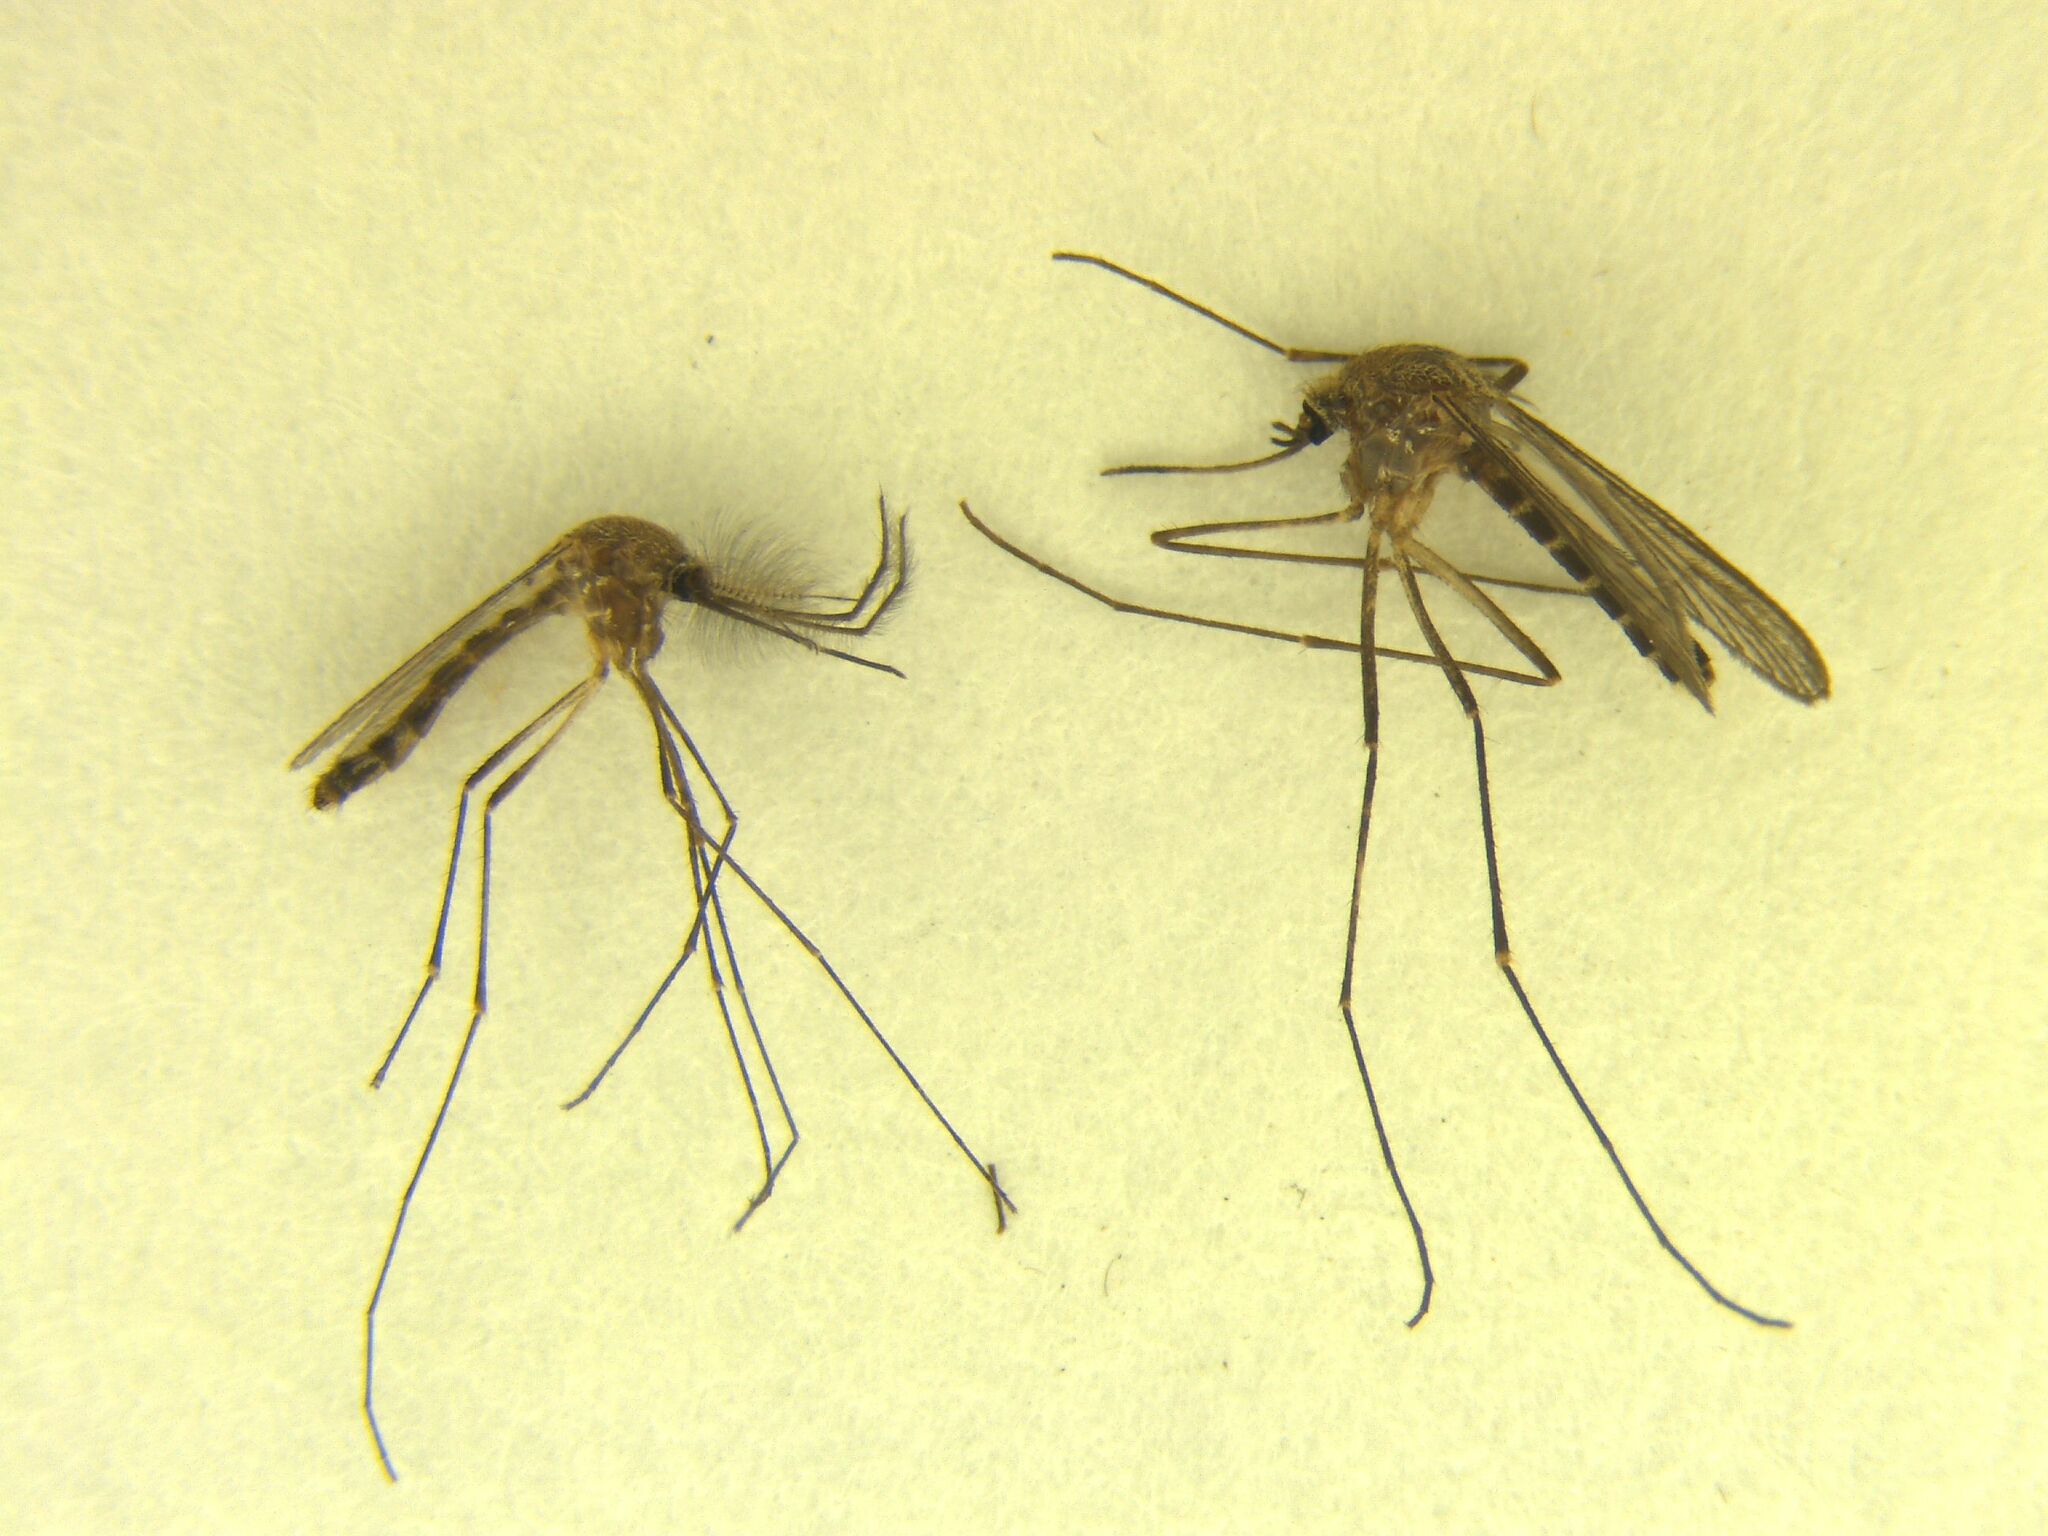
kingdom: Animalia
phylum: Arthropoda
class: Insecta
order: Diptera
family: Culicidae
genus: Culex
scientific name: Culex pervigilans
